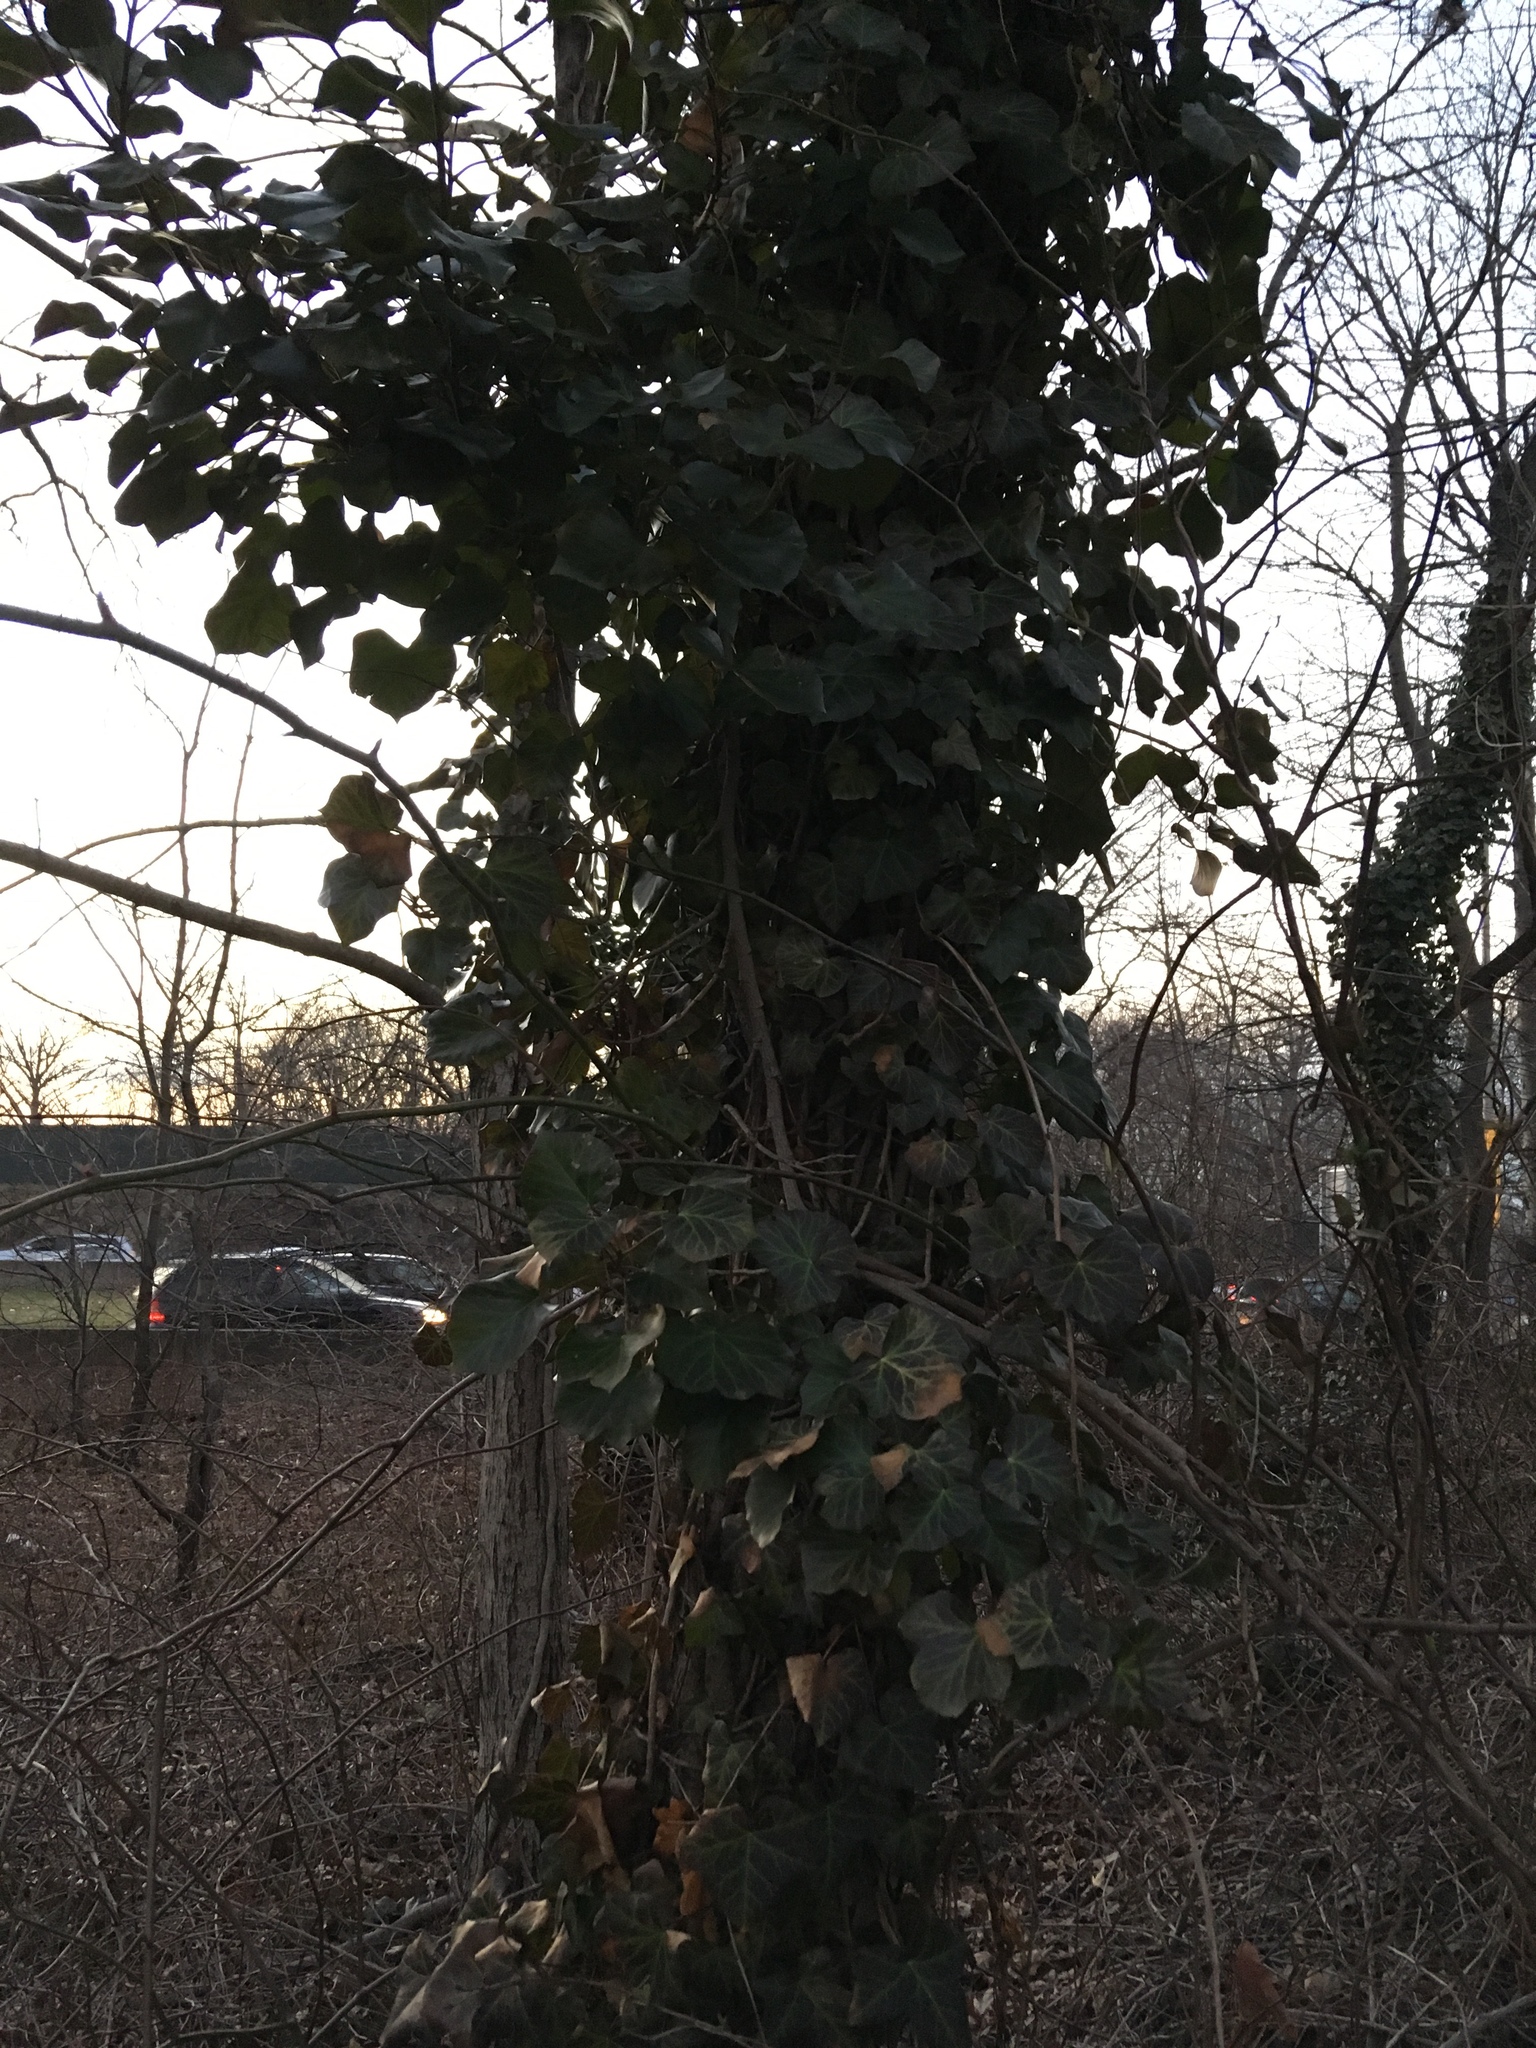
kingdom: Plantae
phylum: Tracheophyta
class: Magnoliopsida
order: Apiales
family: Araliaceae
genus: Hedera
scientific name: Hedera helix
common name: Ivy
